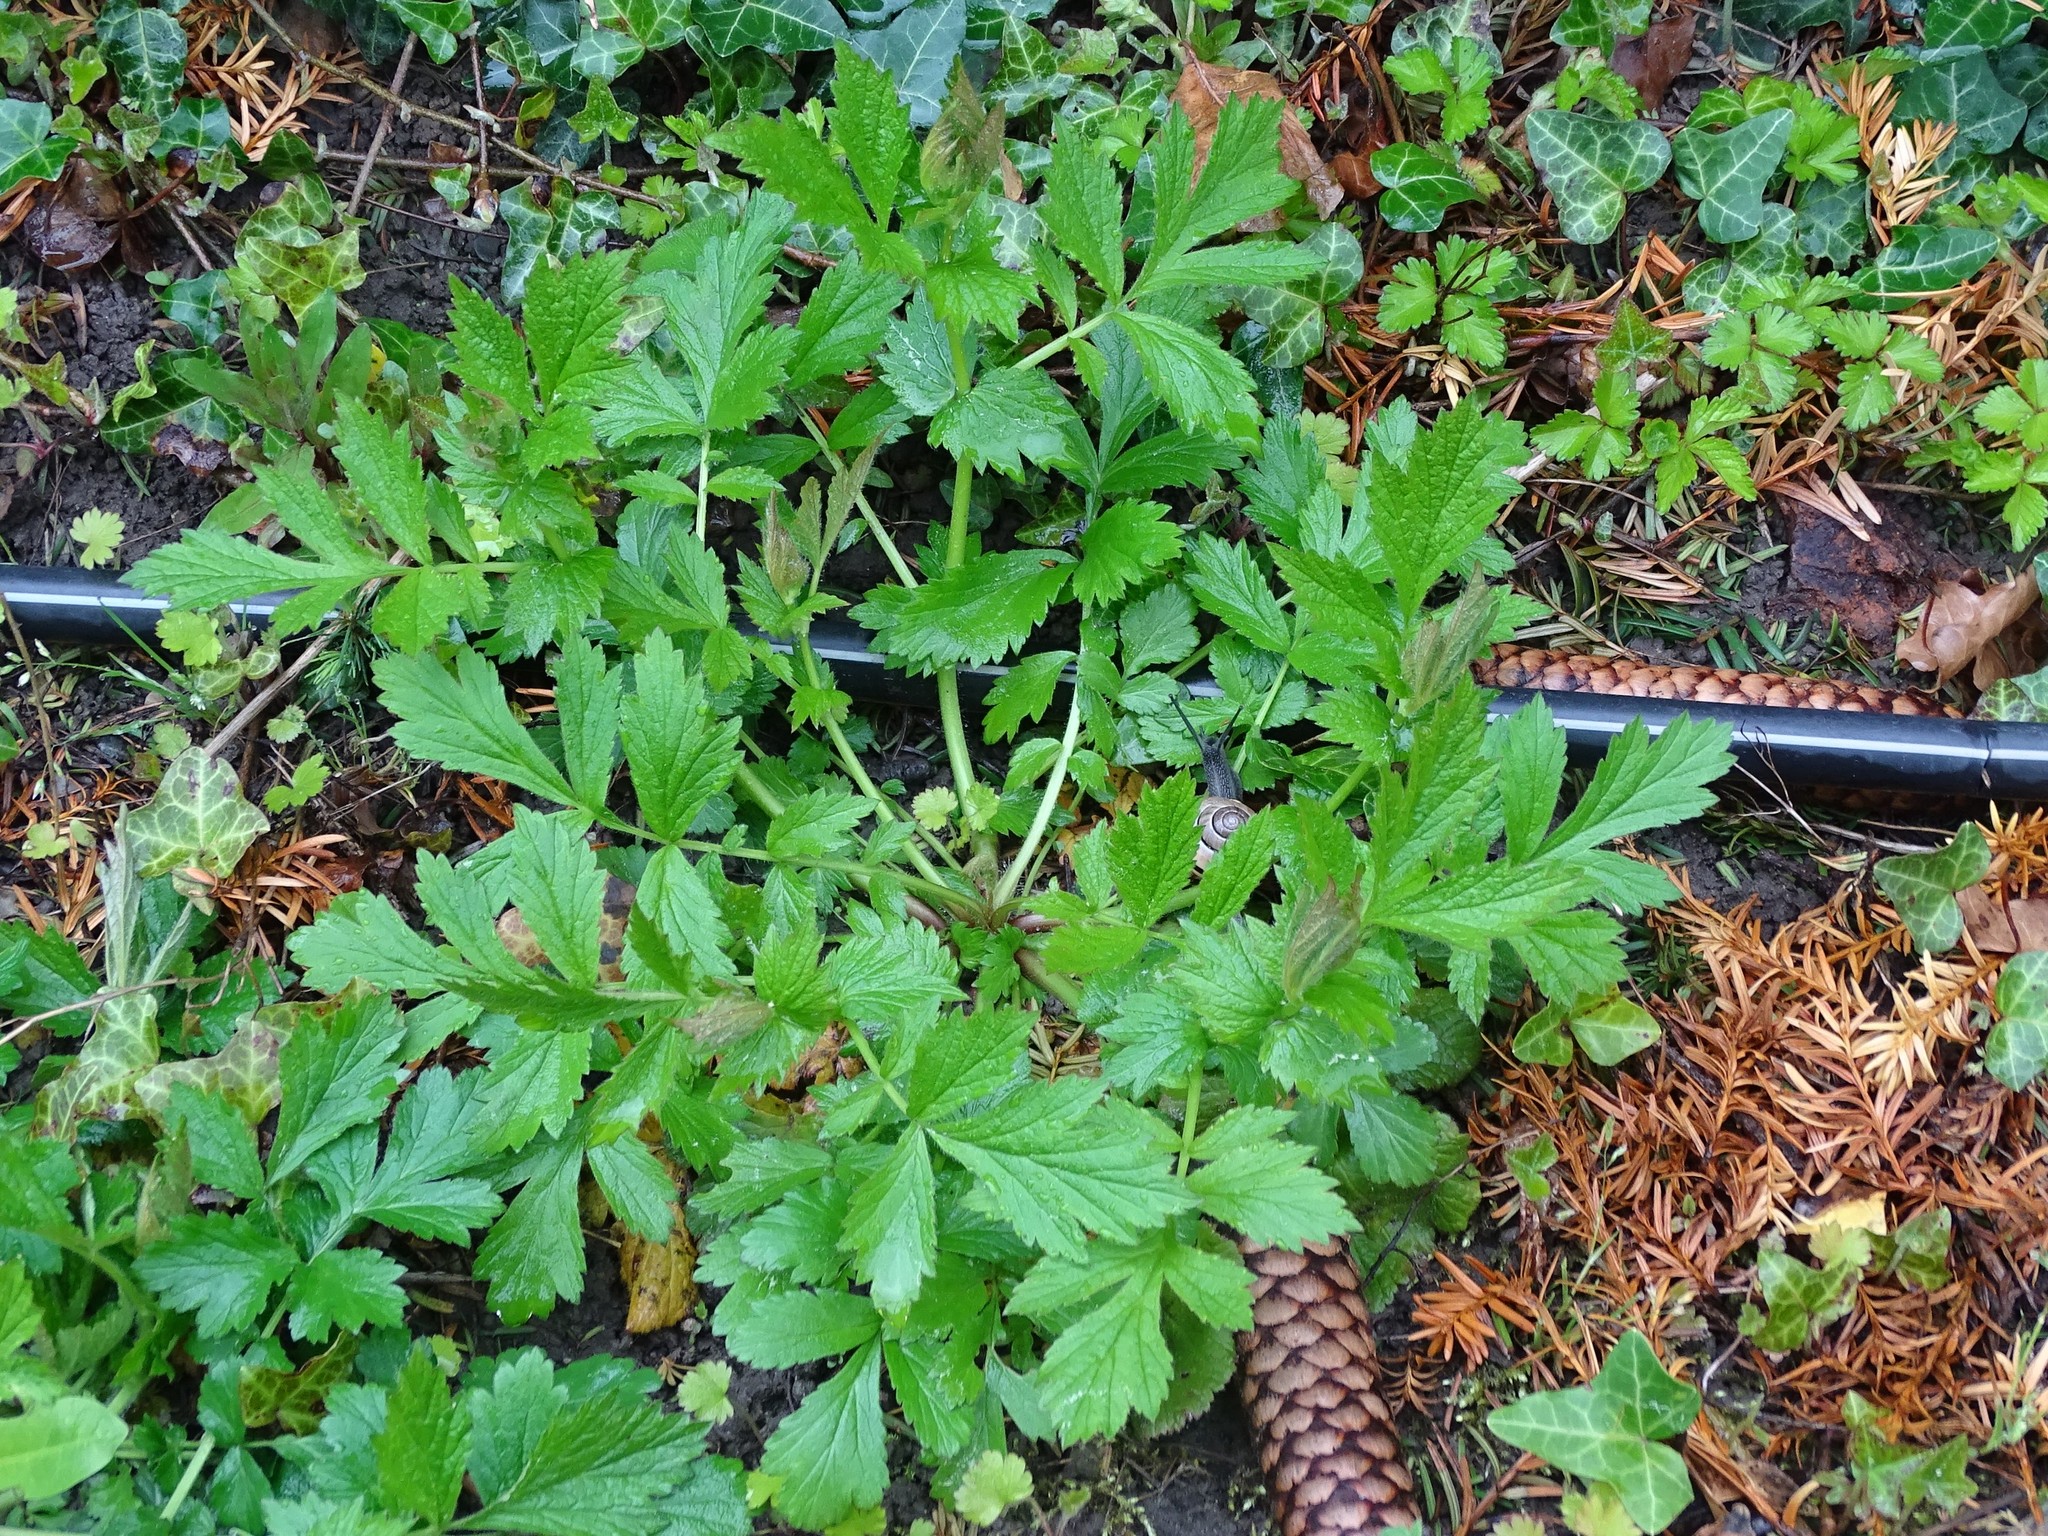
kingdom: Plantae
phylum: Tracheophyta
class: Magnoliopsida
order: Rosales
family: Rosaceae
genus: Geum
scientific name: Geum urbanum
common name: Wood avens
